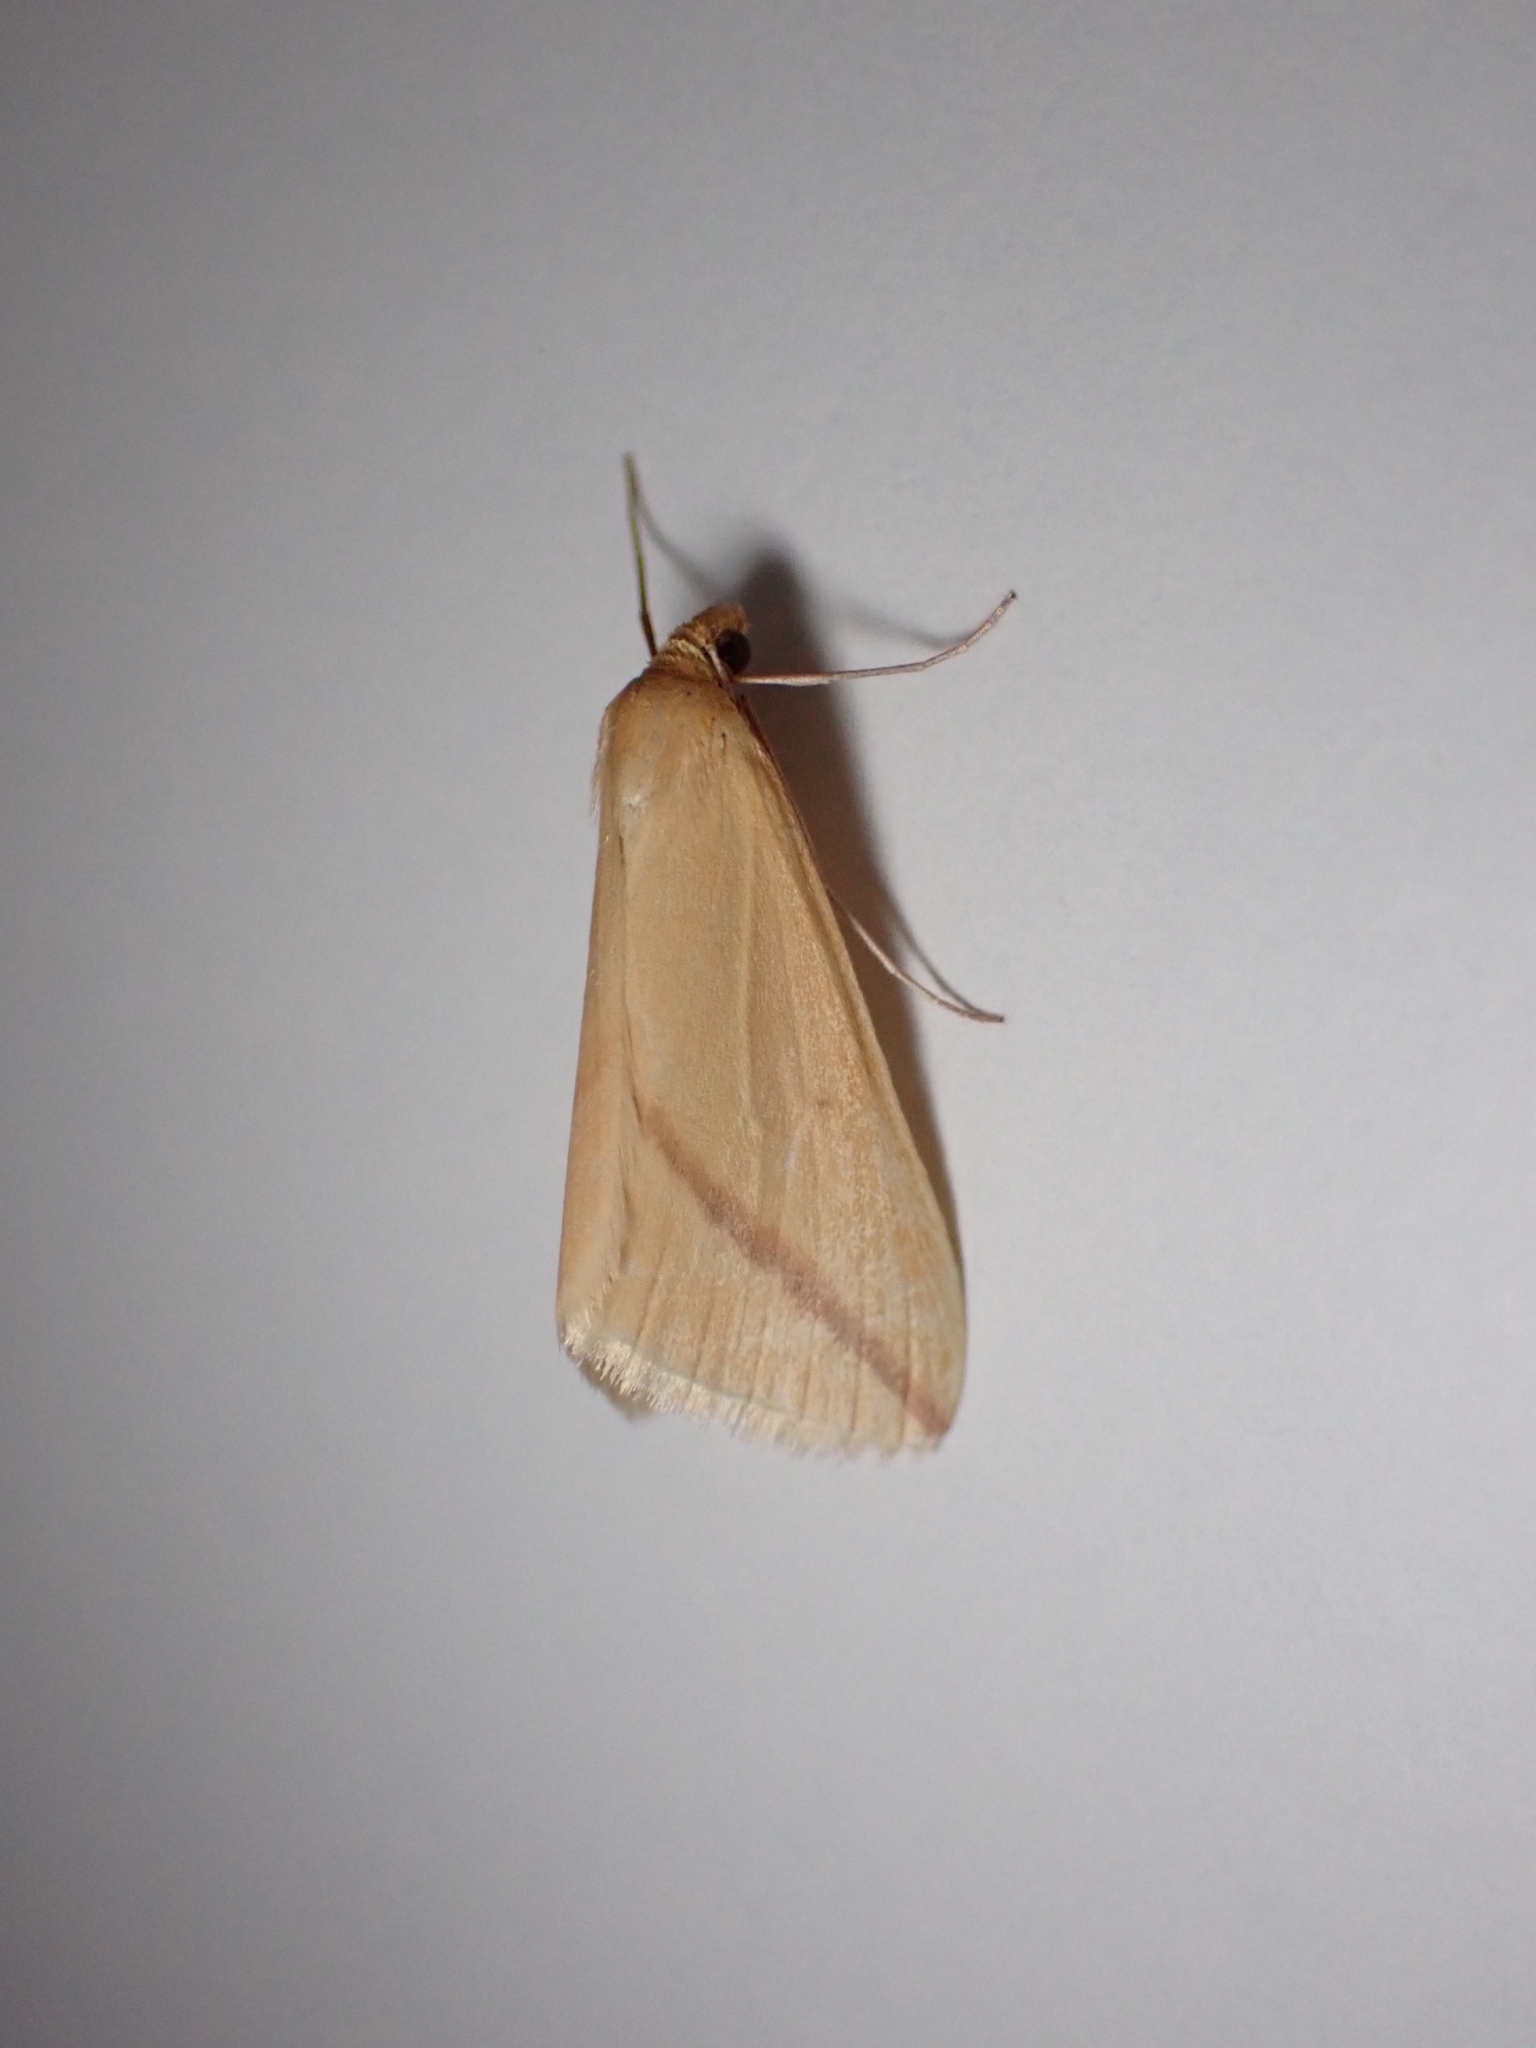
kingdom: Animalia
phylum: Arthropoda
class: Insecta
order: Lepidoptera
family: Geometridae
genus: Rhodometra
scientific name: Rhodometra sacraria
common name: Vestal
